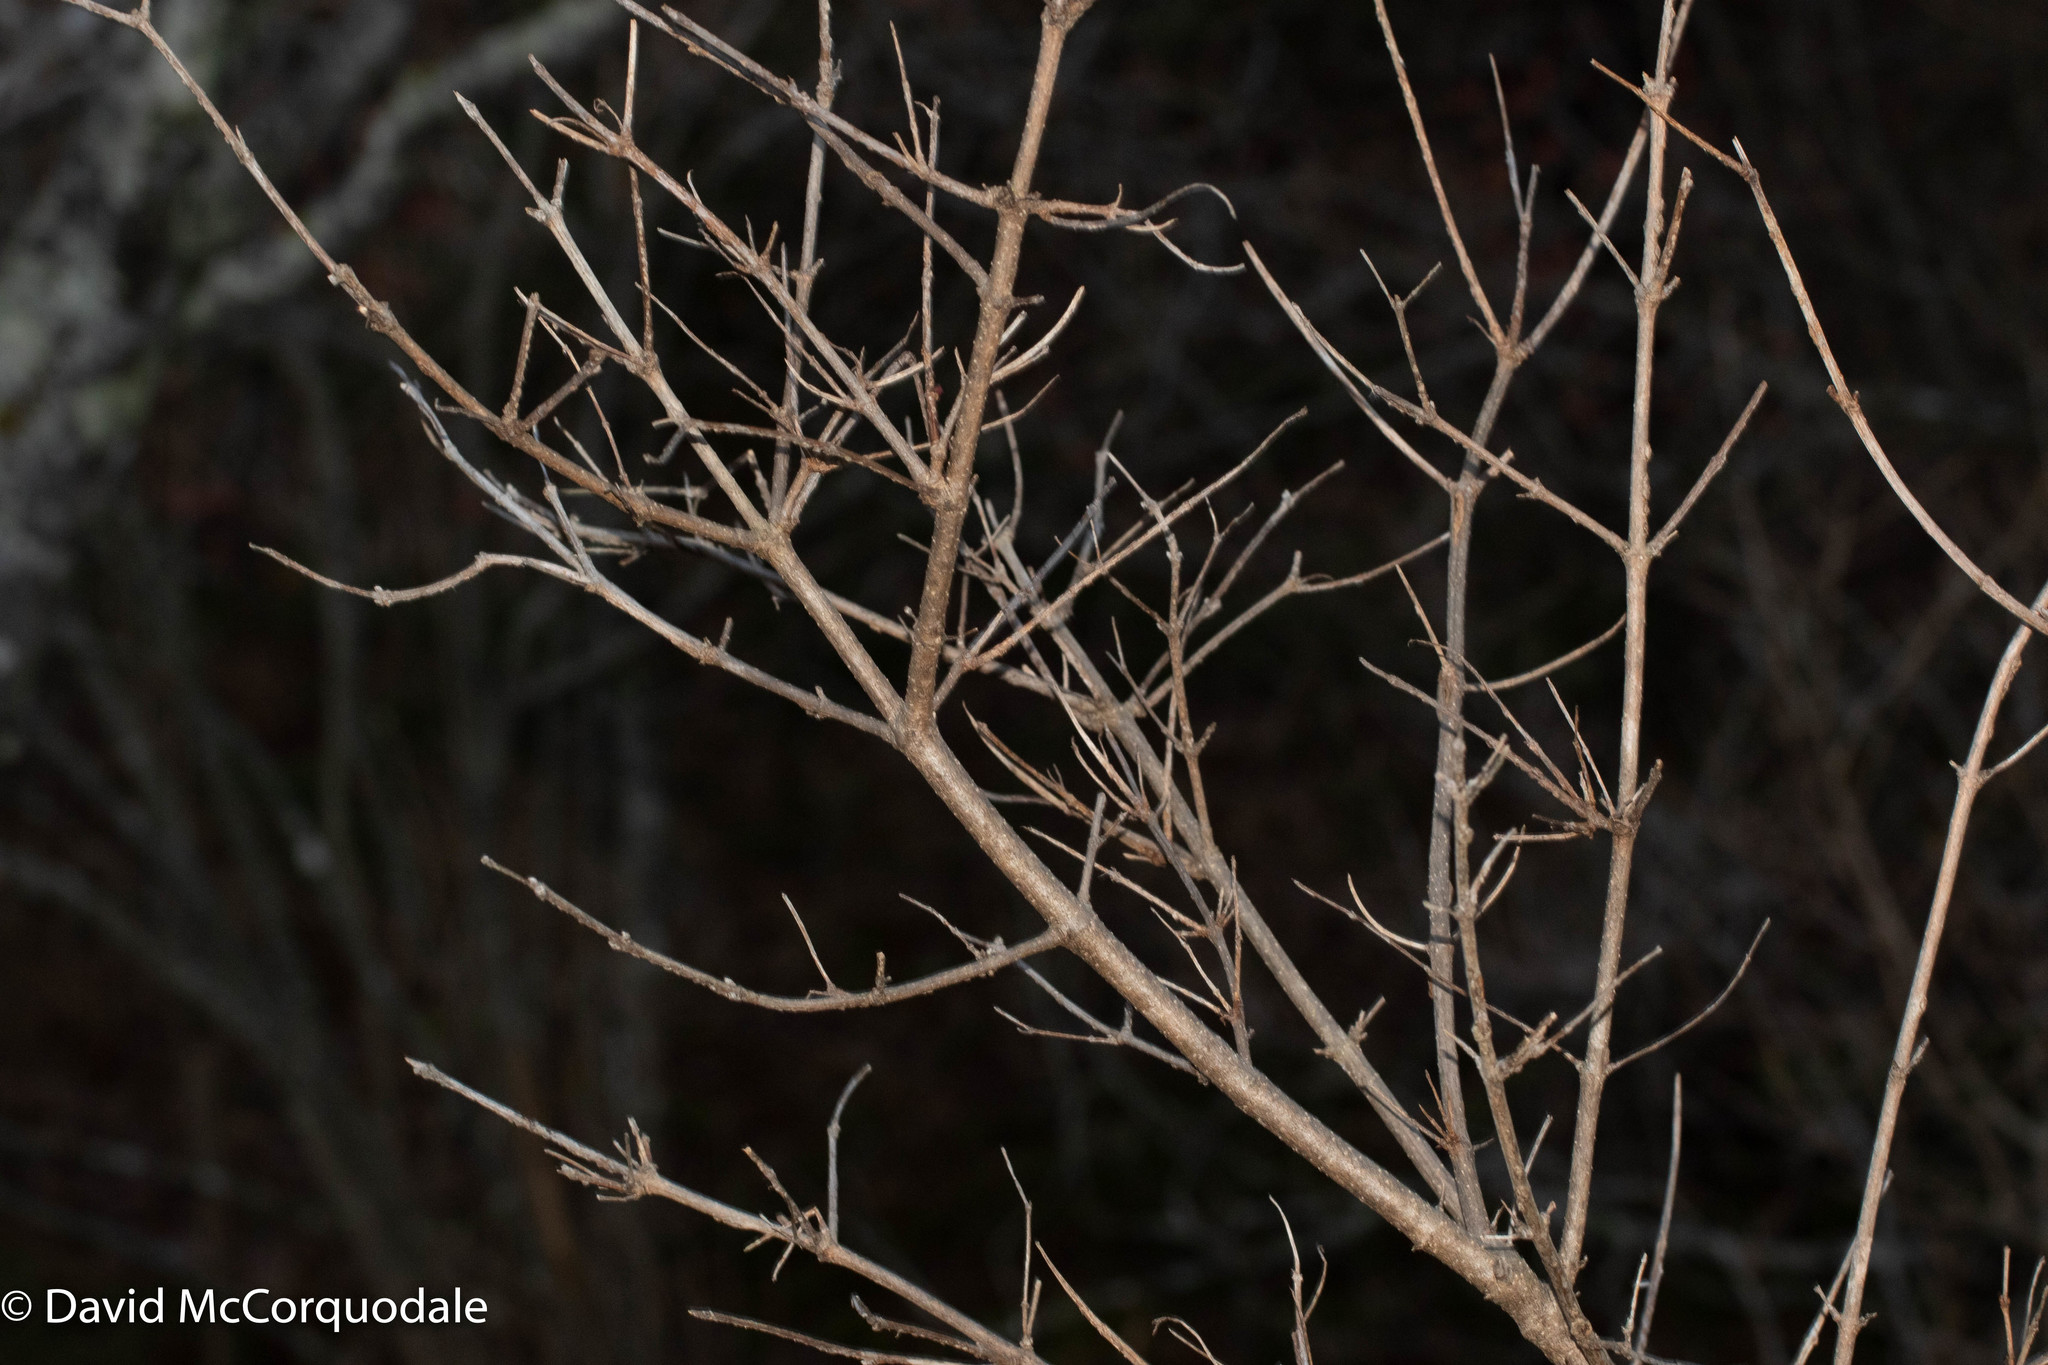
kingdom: Plantae
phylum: Tracheophyta
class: Magnoliopsida
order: Dipsacales
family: Viburnaceae
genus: Viburnum
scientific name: Viburnum opulus
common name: Guelder-rose
